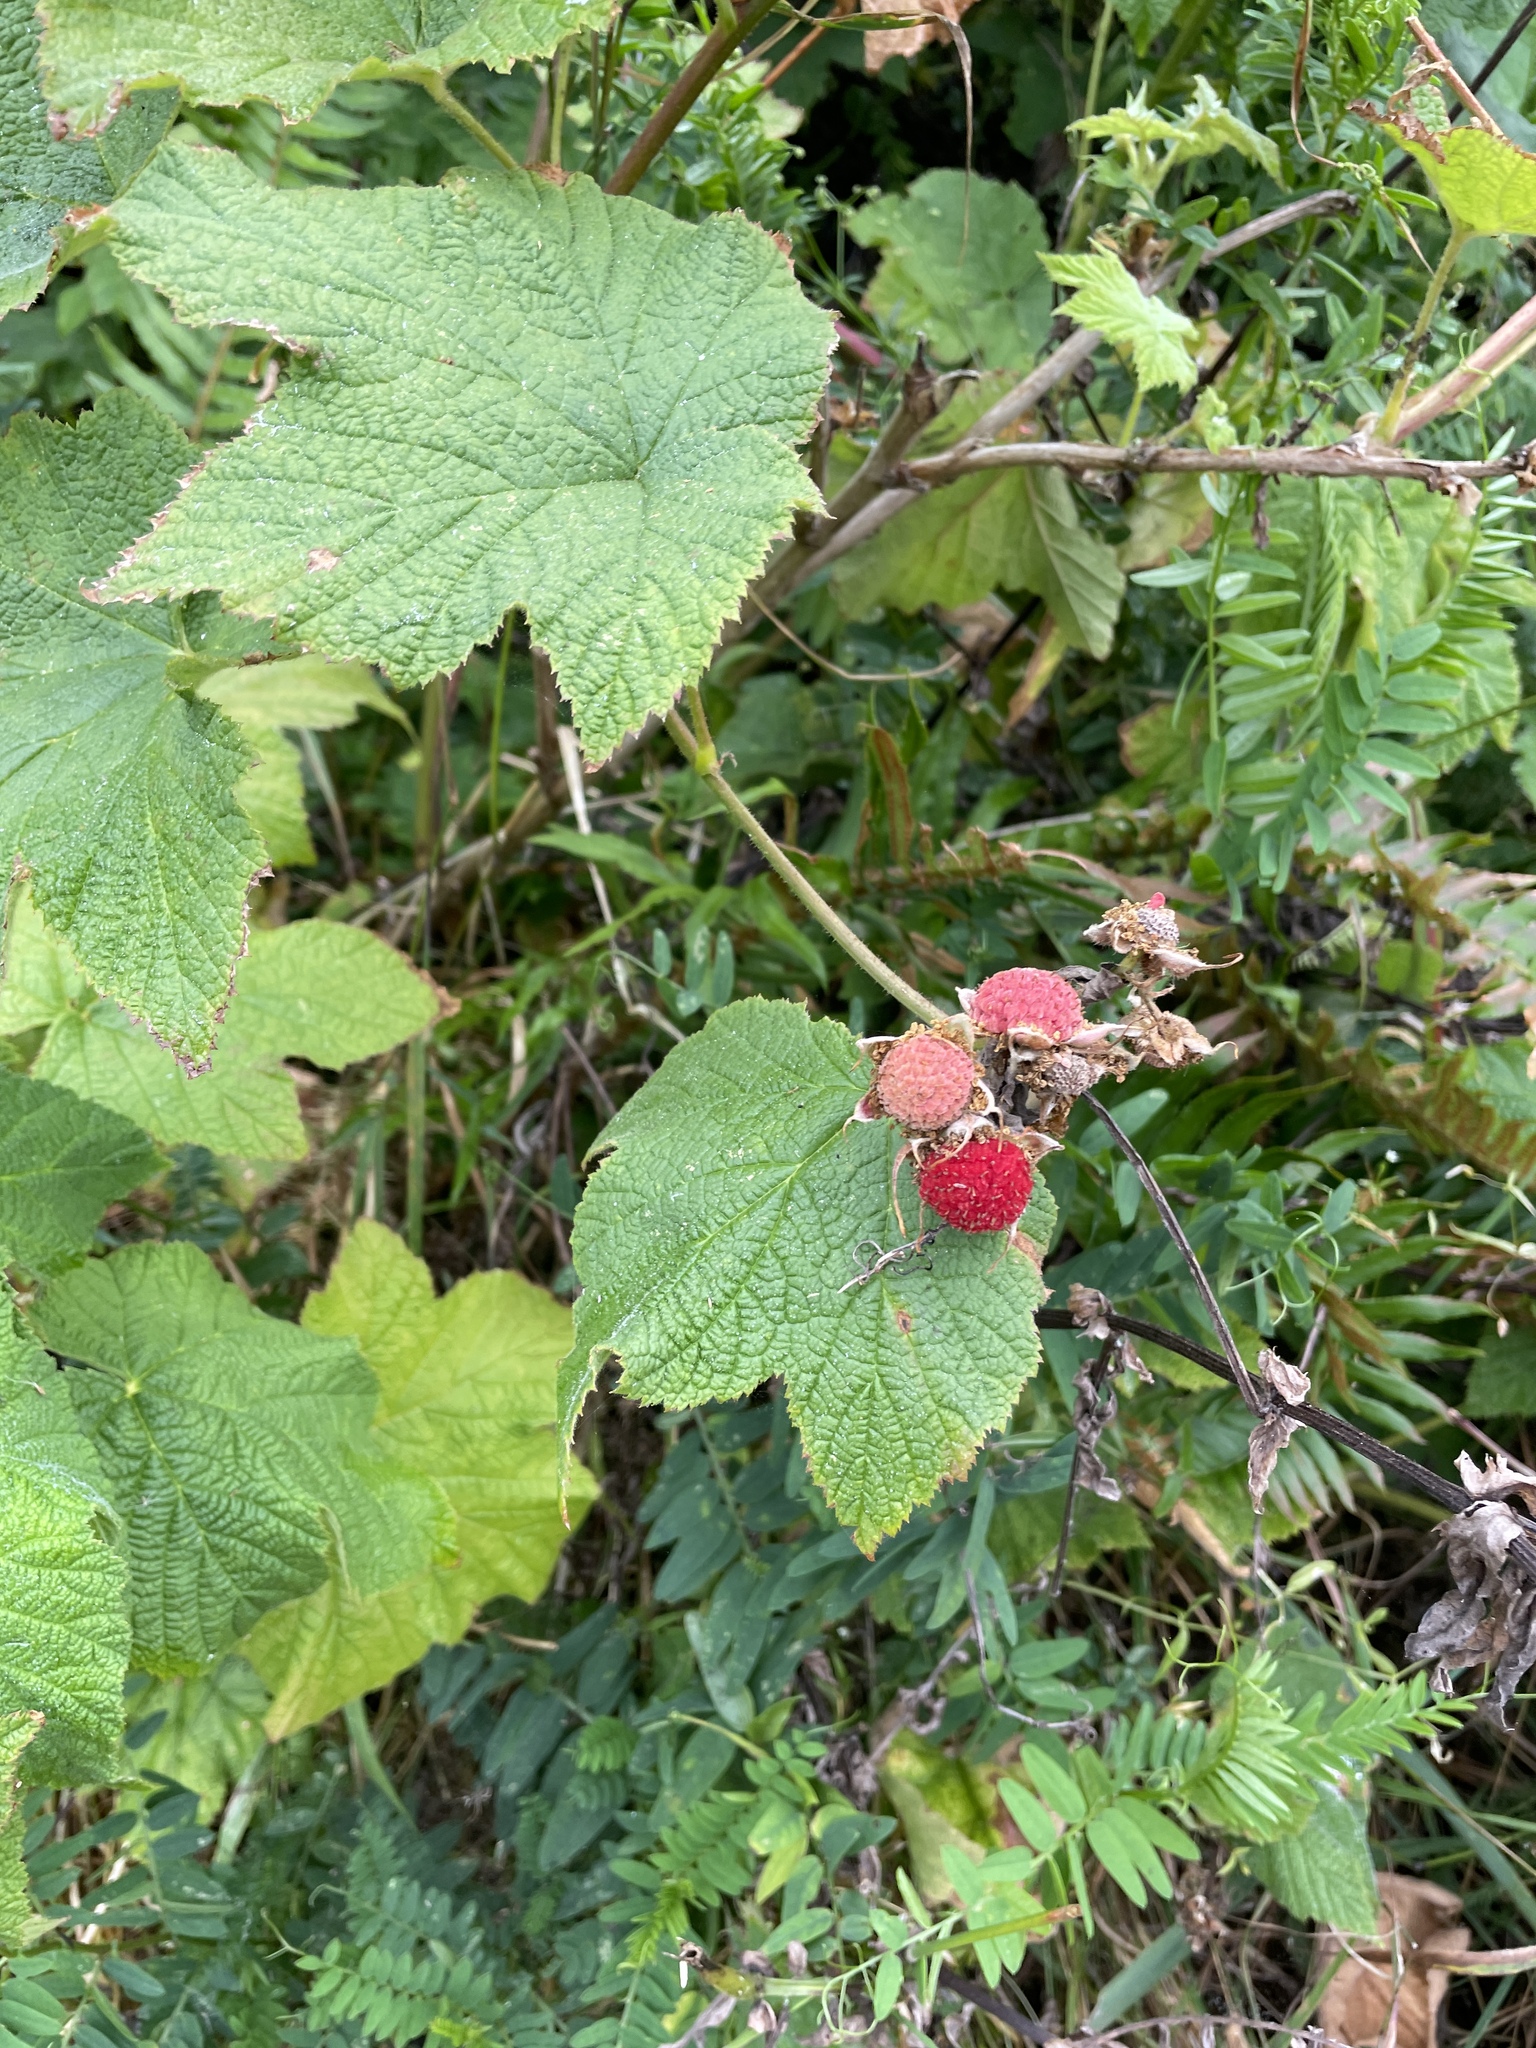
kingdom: Plantae
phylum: Tracheophyta
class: Magnoliopsida
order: Rosales
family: Rosaceae
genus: Rubus
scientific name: Rubus parviflorus
